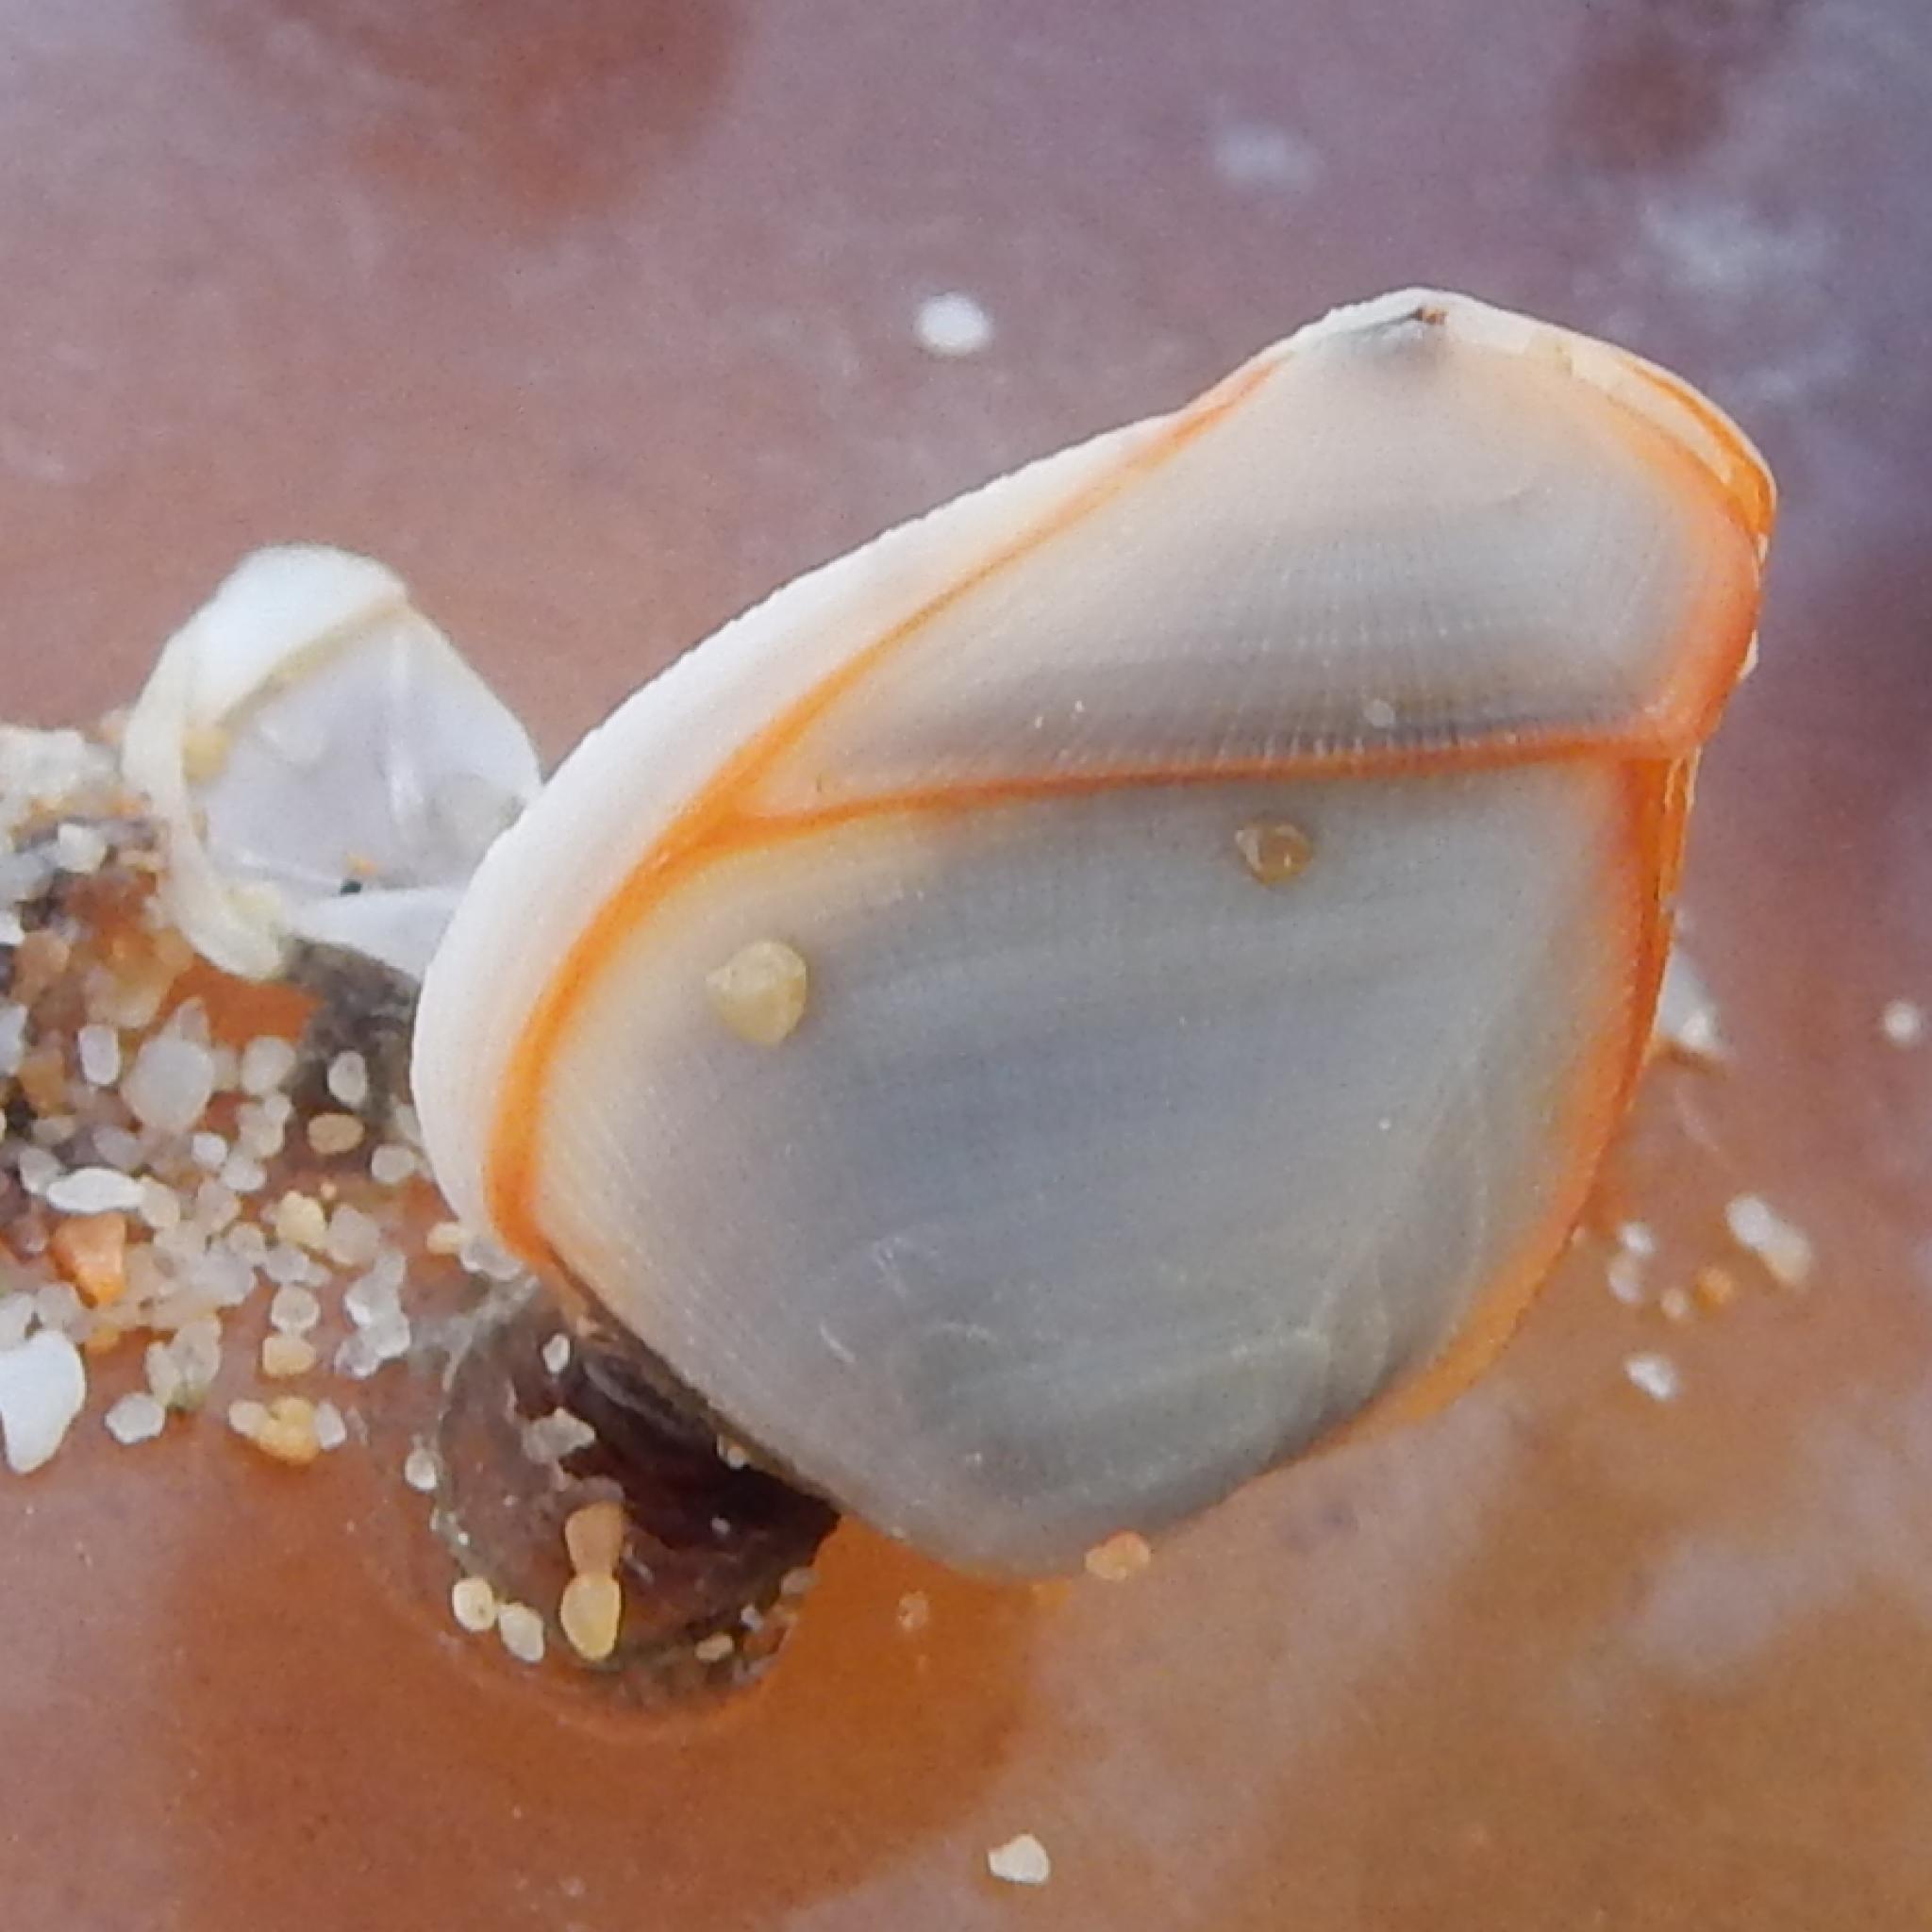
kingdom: Animalia
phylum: Arthropoda
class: Maxillopoda
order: Pedunculata
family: Lepadidae
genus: Lepas
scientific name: Lepas anserifera
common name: Goose barnacle
